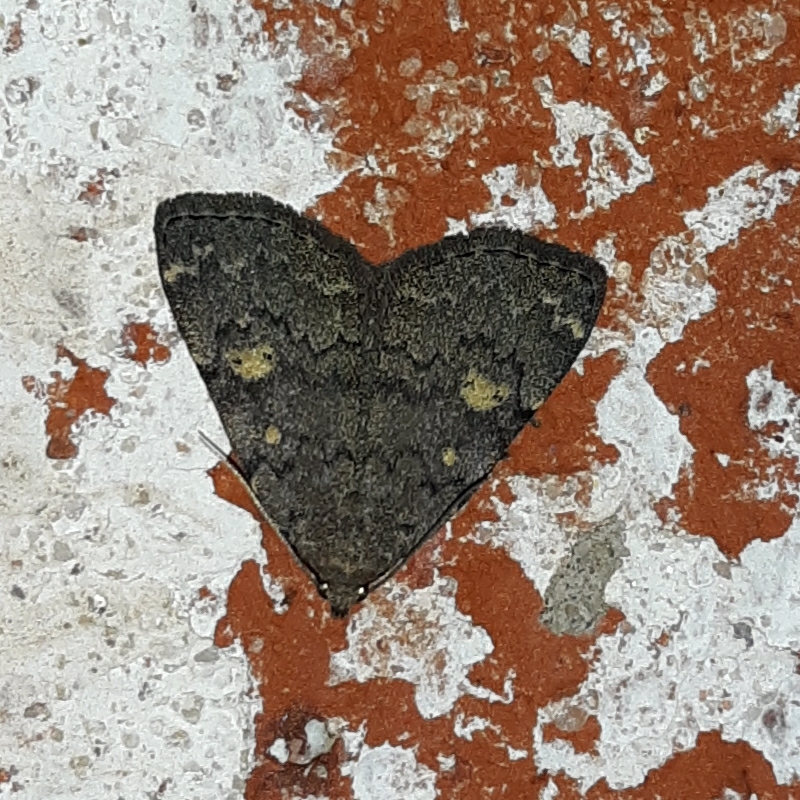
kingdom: Animalia
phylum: Arthropoda
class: Insecta
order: Lepidoptera
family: Erebidae
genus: Idia
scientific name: Idia aemula
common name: Common idia moth
